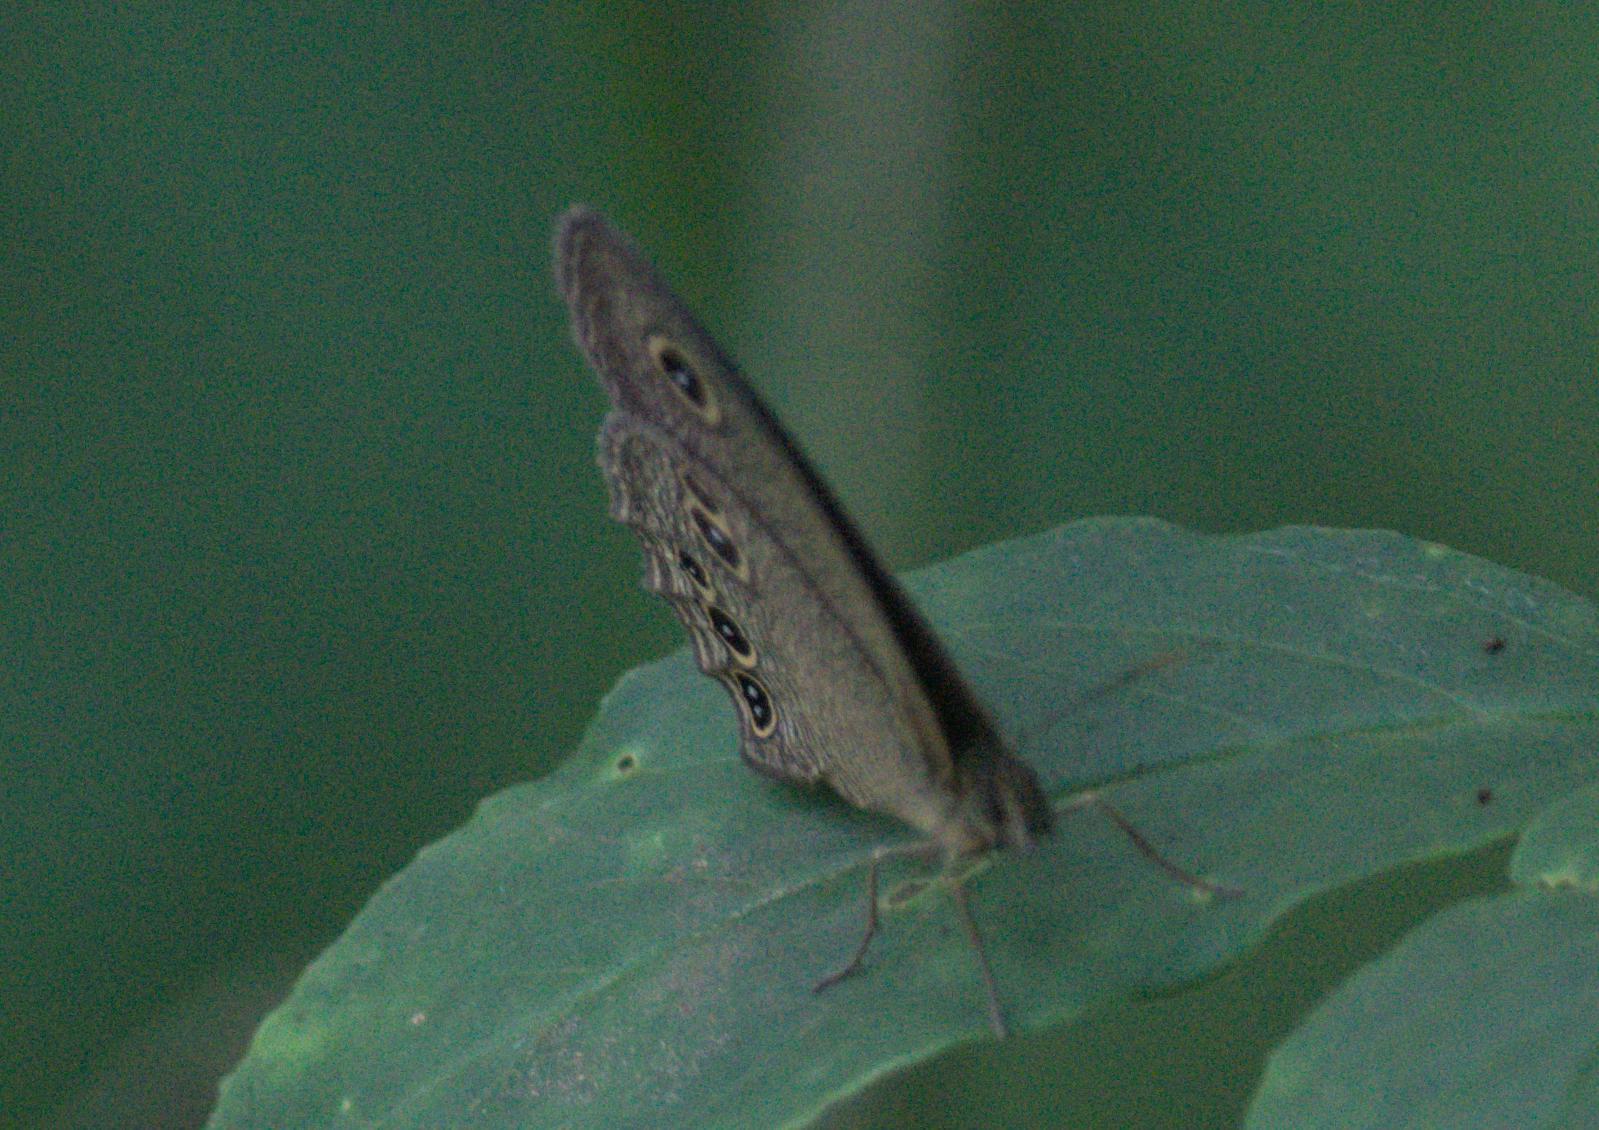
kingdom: Animalia
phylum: Arthropoda
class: Insecta
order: Lepidoptera
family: Nymphalidae
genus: Ypthima
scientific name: Ypthima nikaea
